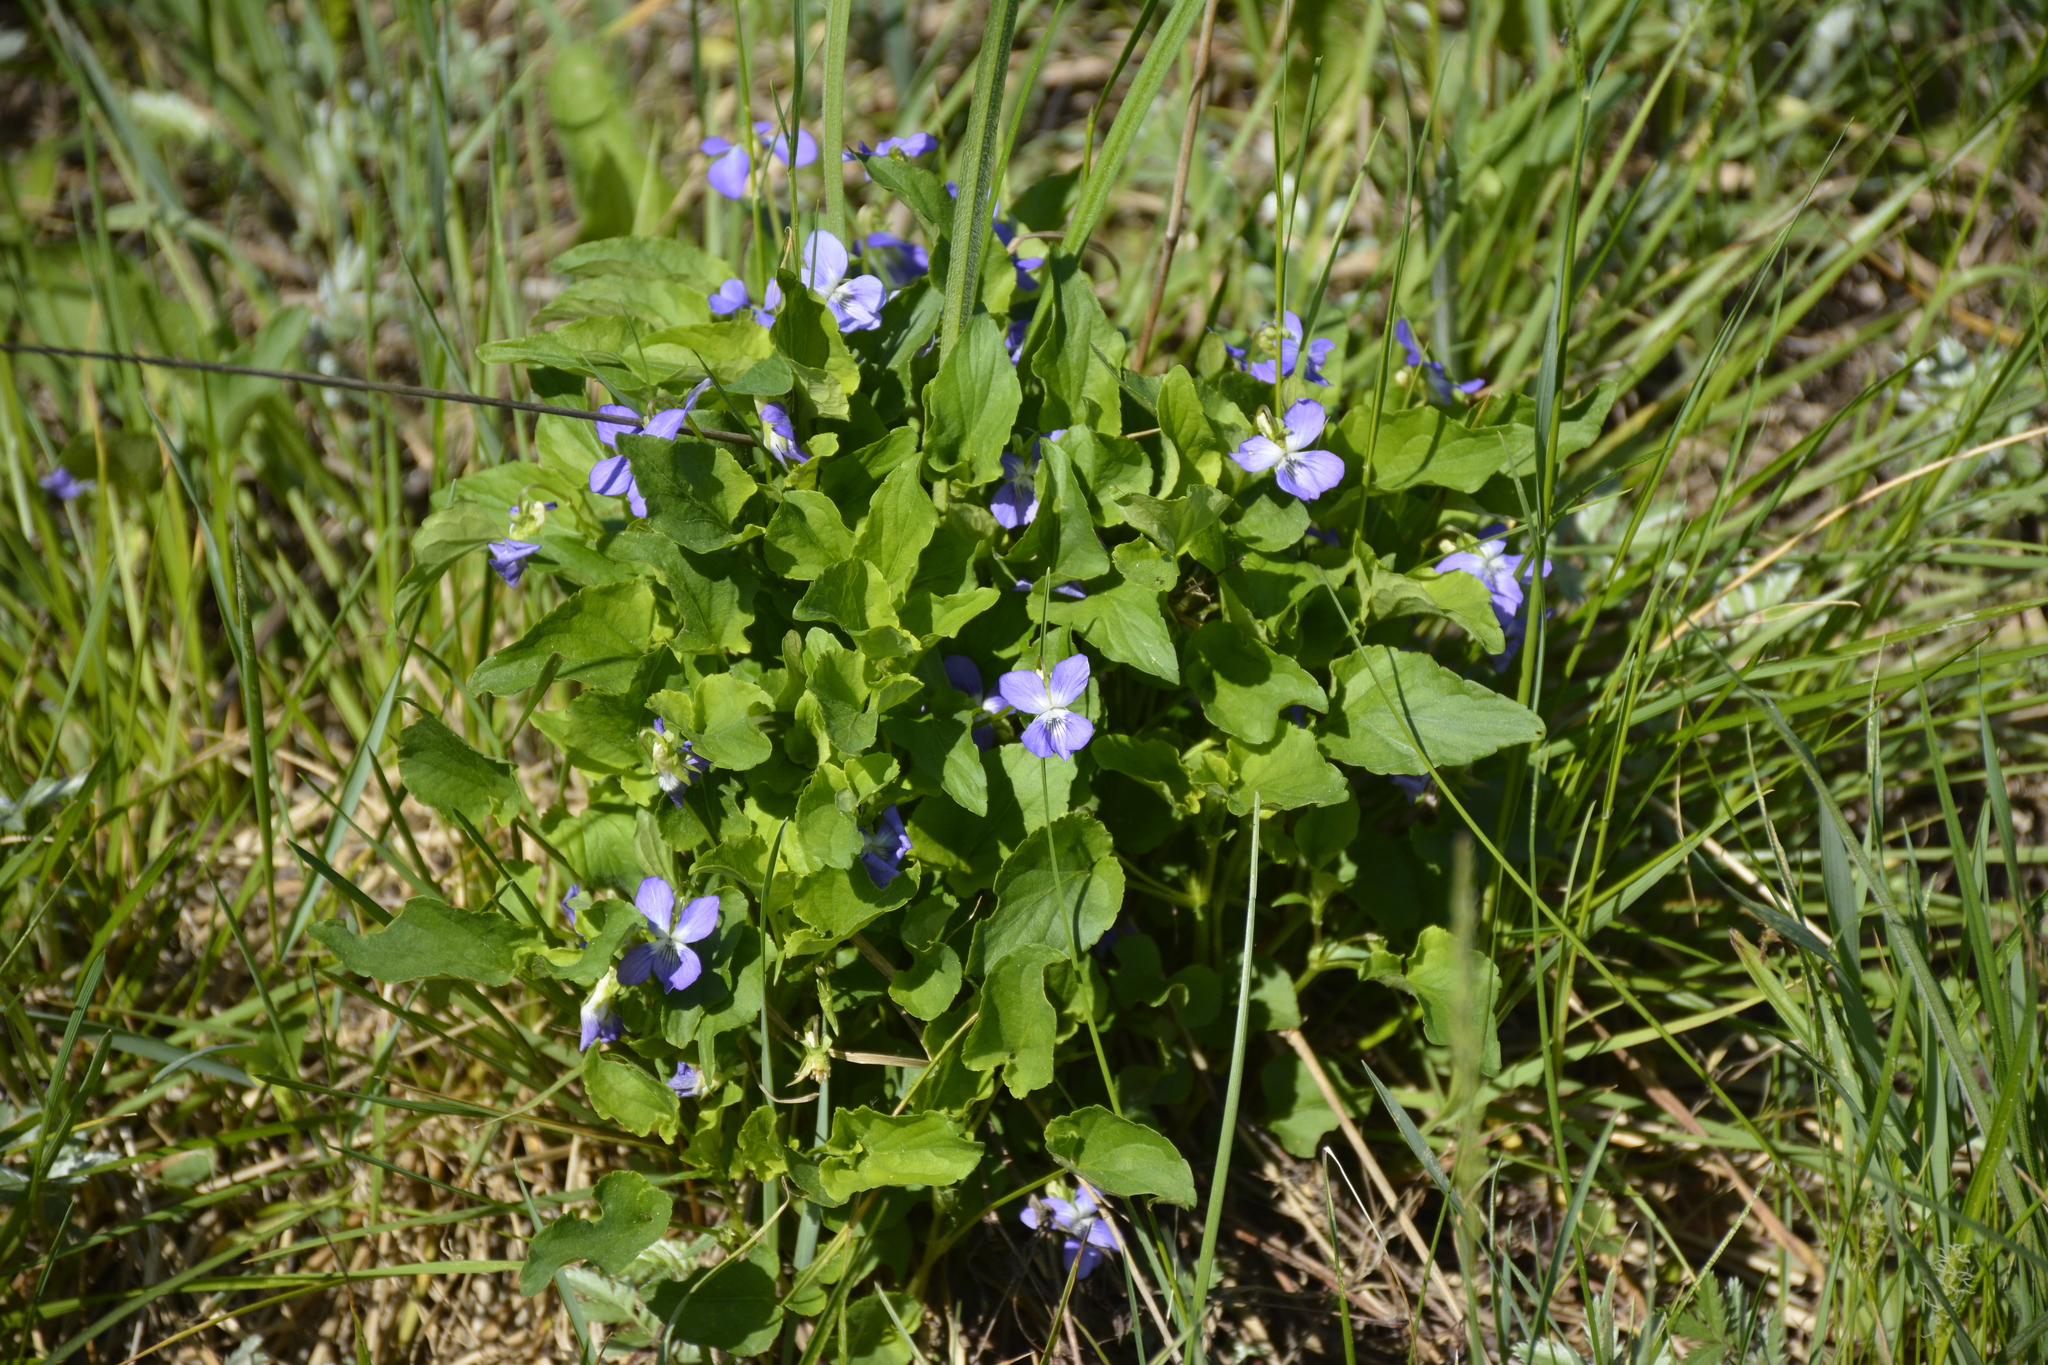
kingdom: Plantae
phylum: Tracheophyta
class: Magnoliopsida
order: Malpighiales
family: Violaceae
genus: Viola
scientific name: Viola canina
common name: Heath dog-violet
